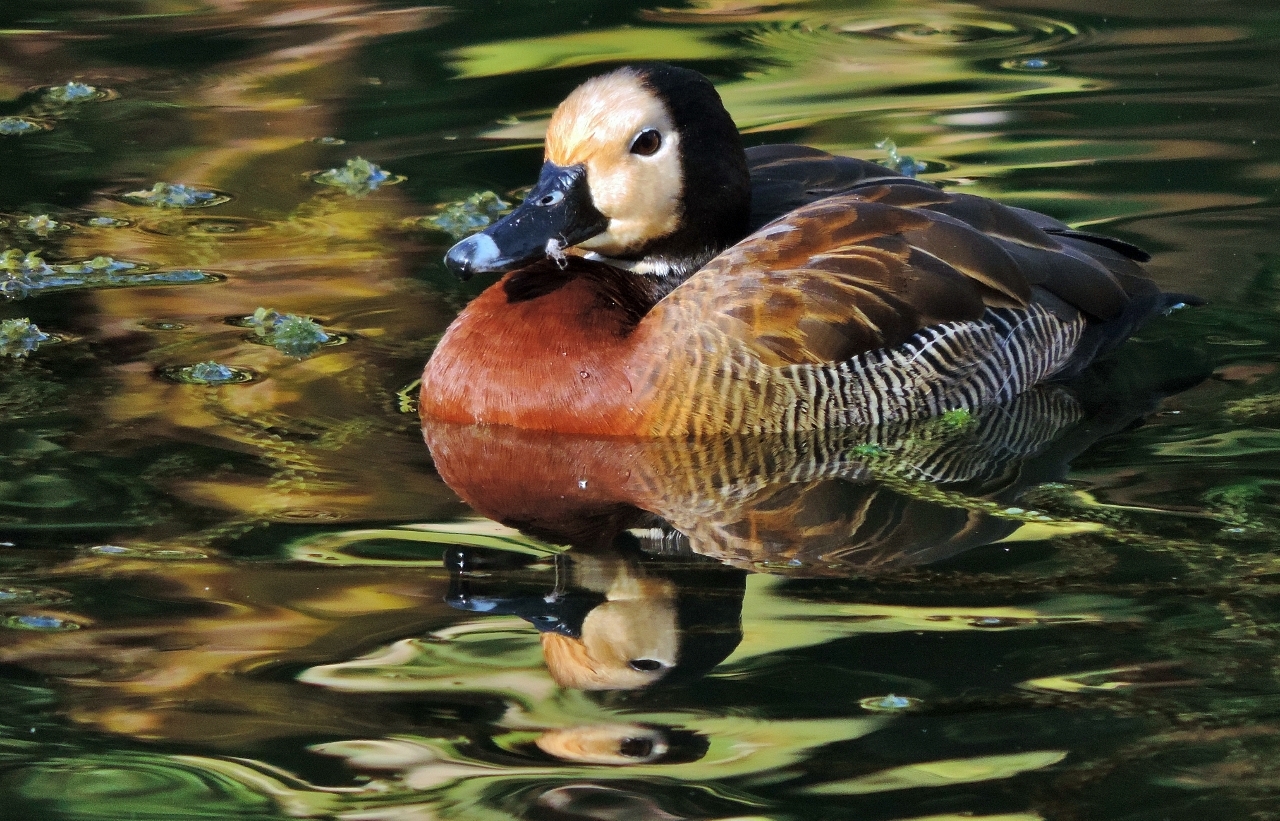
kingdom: Animalia
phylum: Chordata
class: Aves
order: Anseriformes
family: Anatidae
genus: Dendrocygna
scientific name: Dendrocygna viduata
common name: White-faced whistling duck
